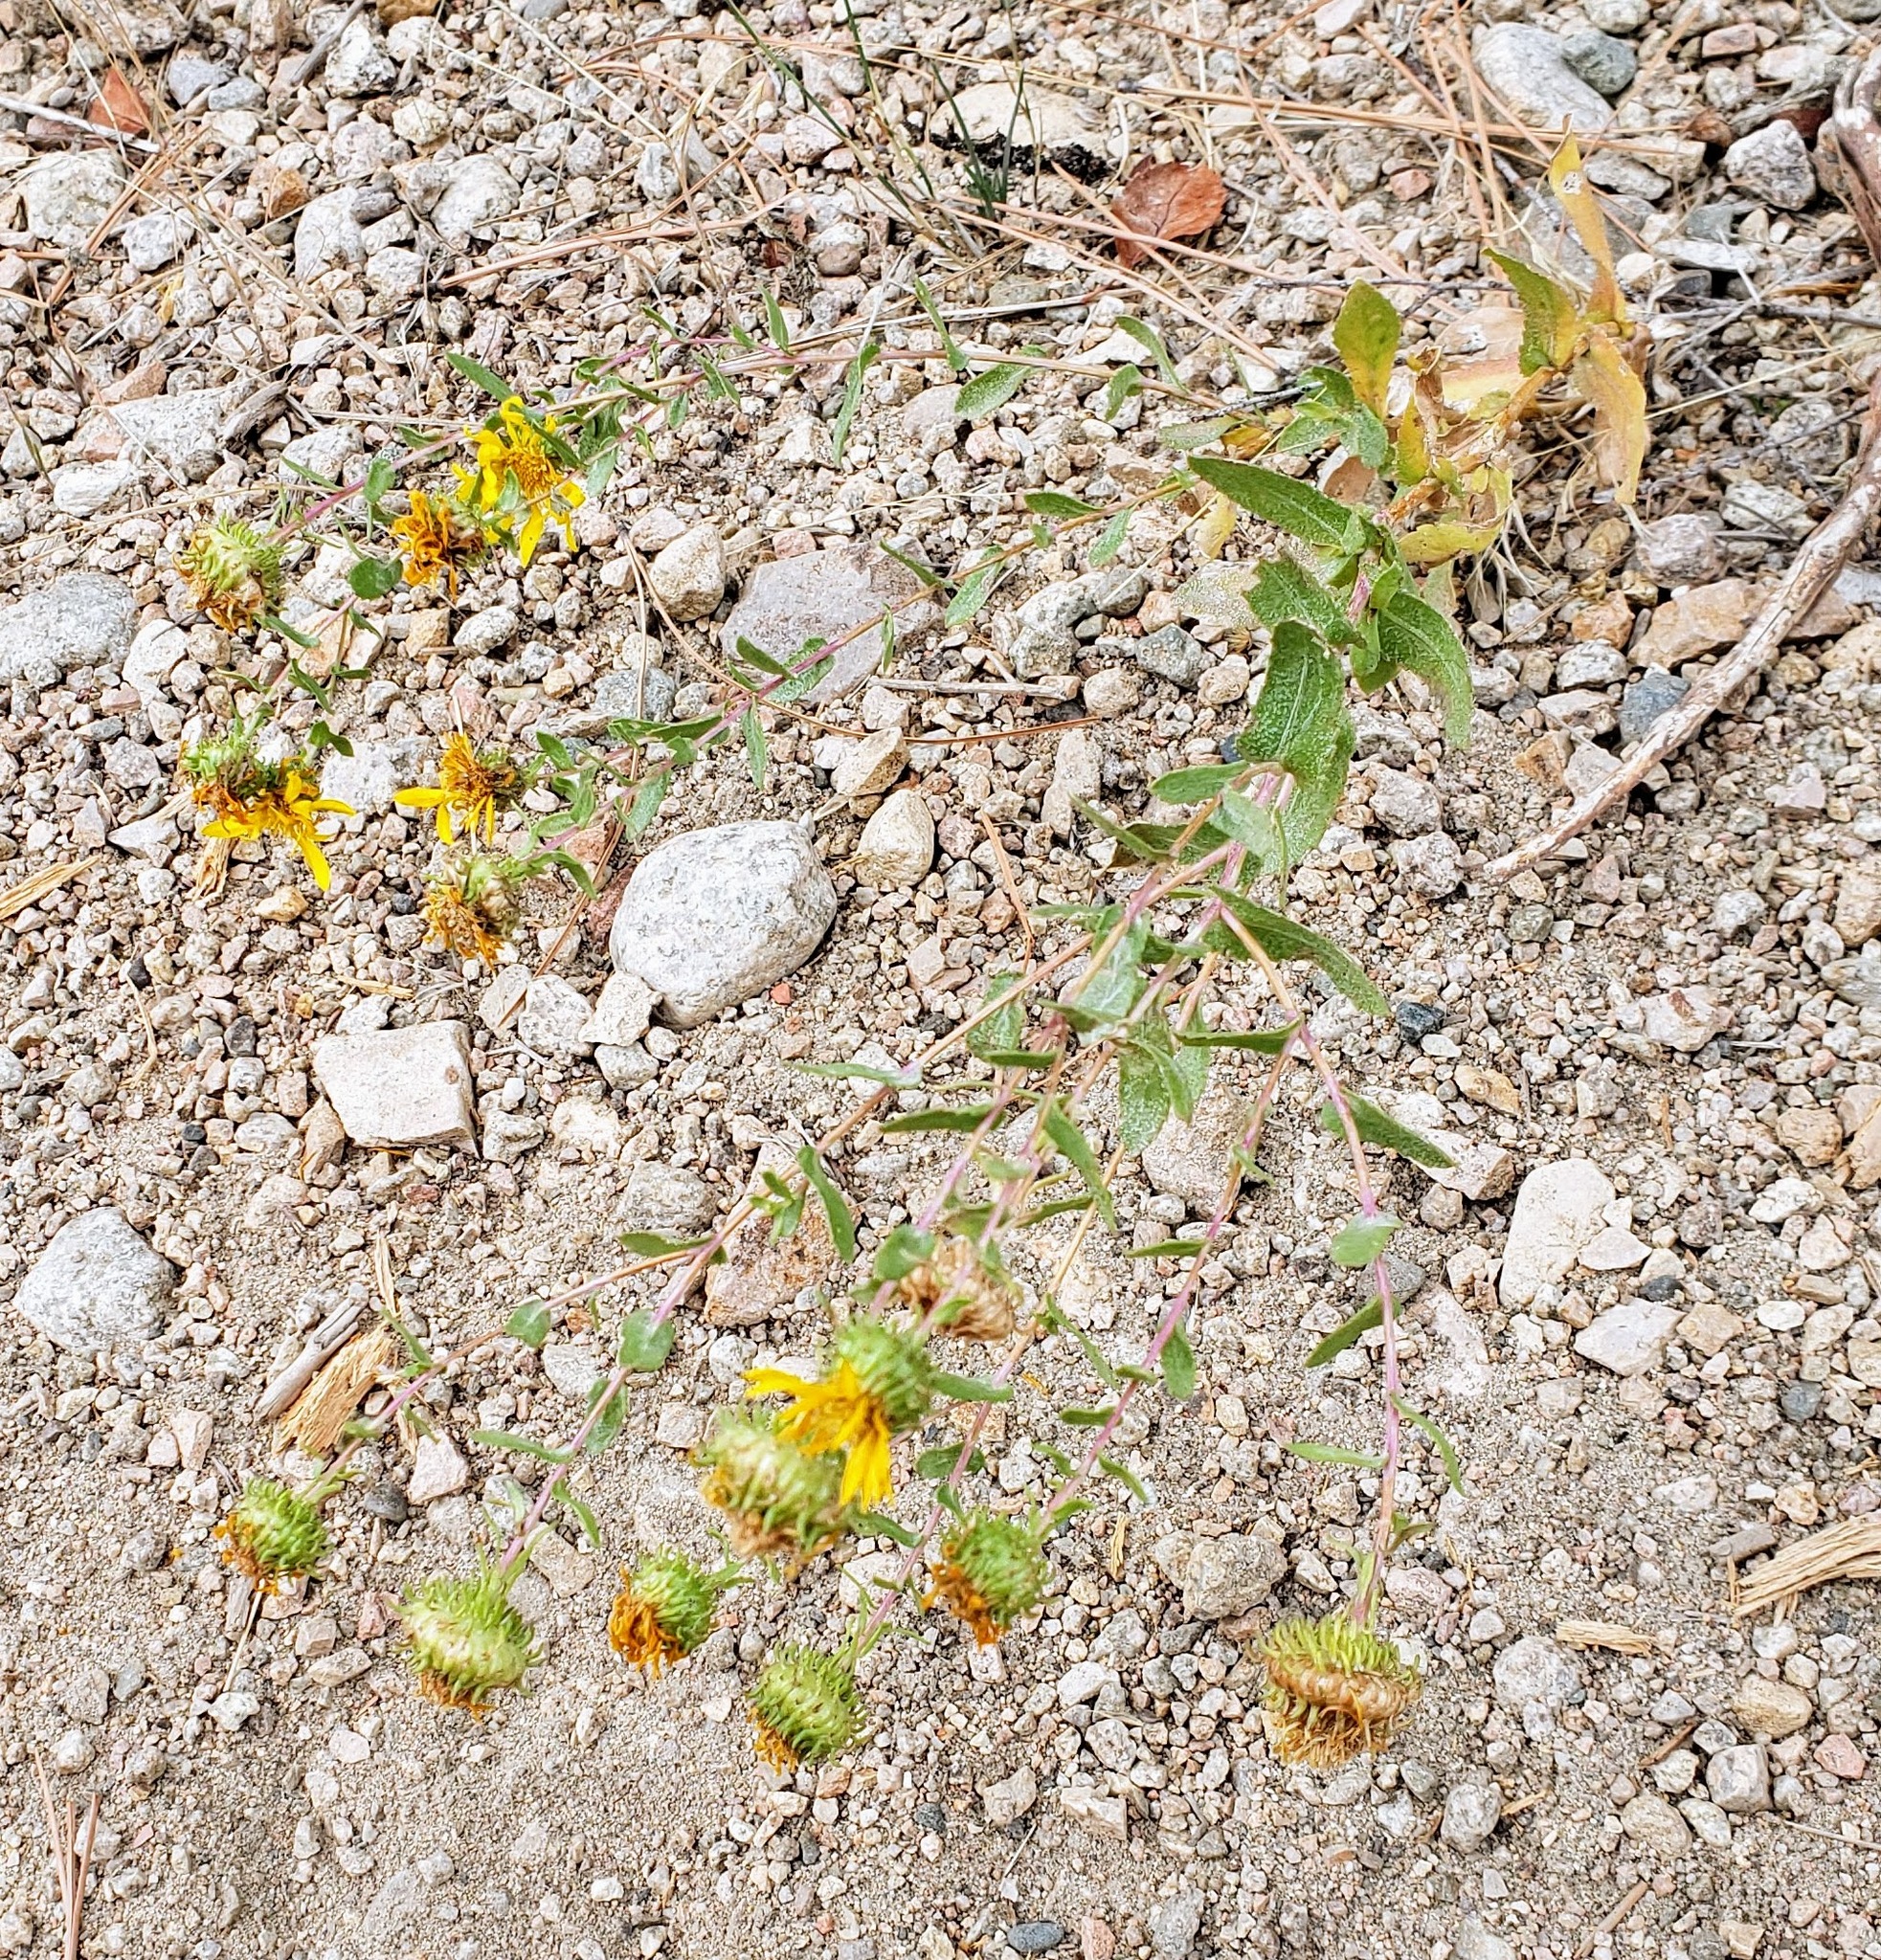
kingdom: Plantae
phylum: Tracheophyta
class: Magnoliopsida
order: Asterales
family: Asteraceae
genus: Grindelia
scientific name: Grindelia squarrosa
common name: Curly-cup gumweed
